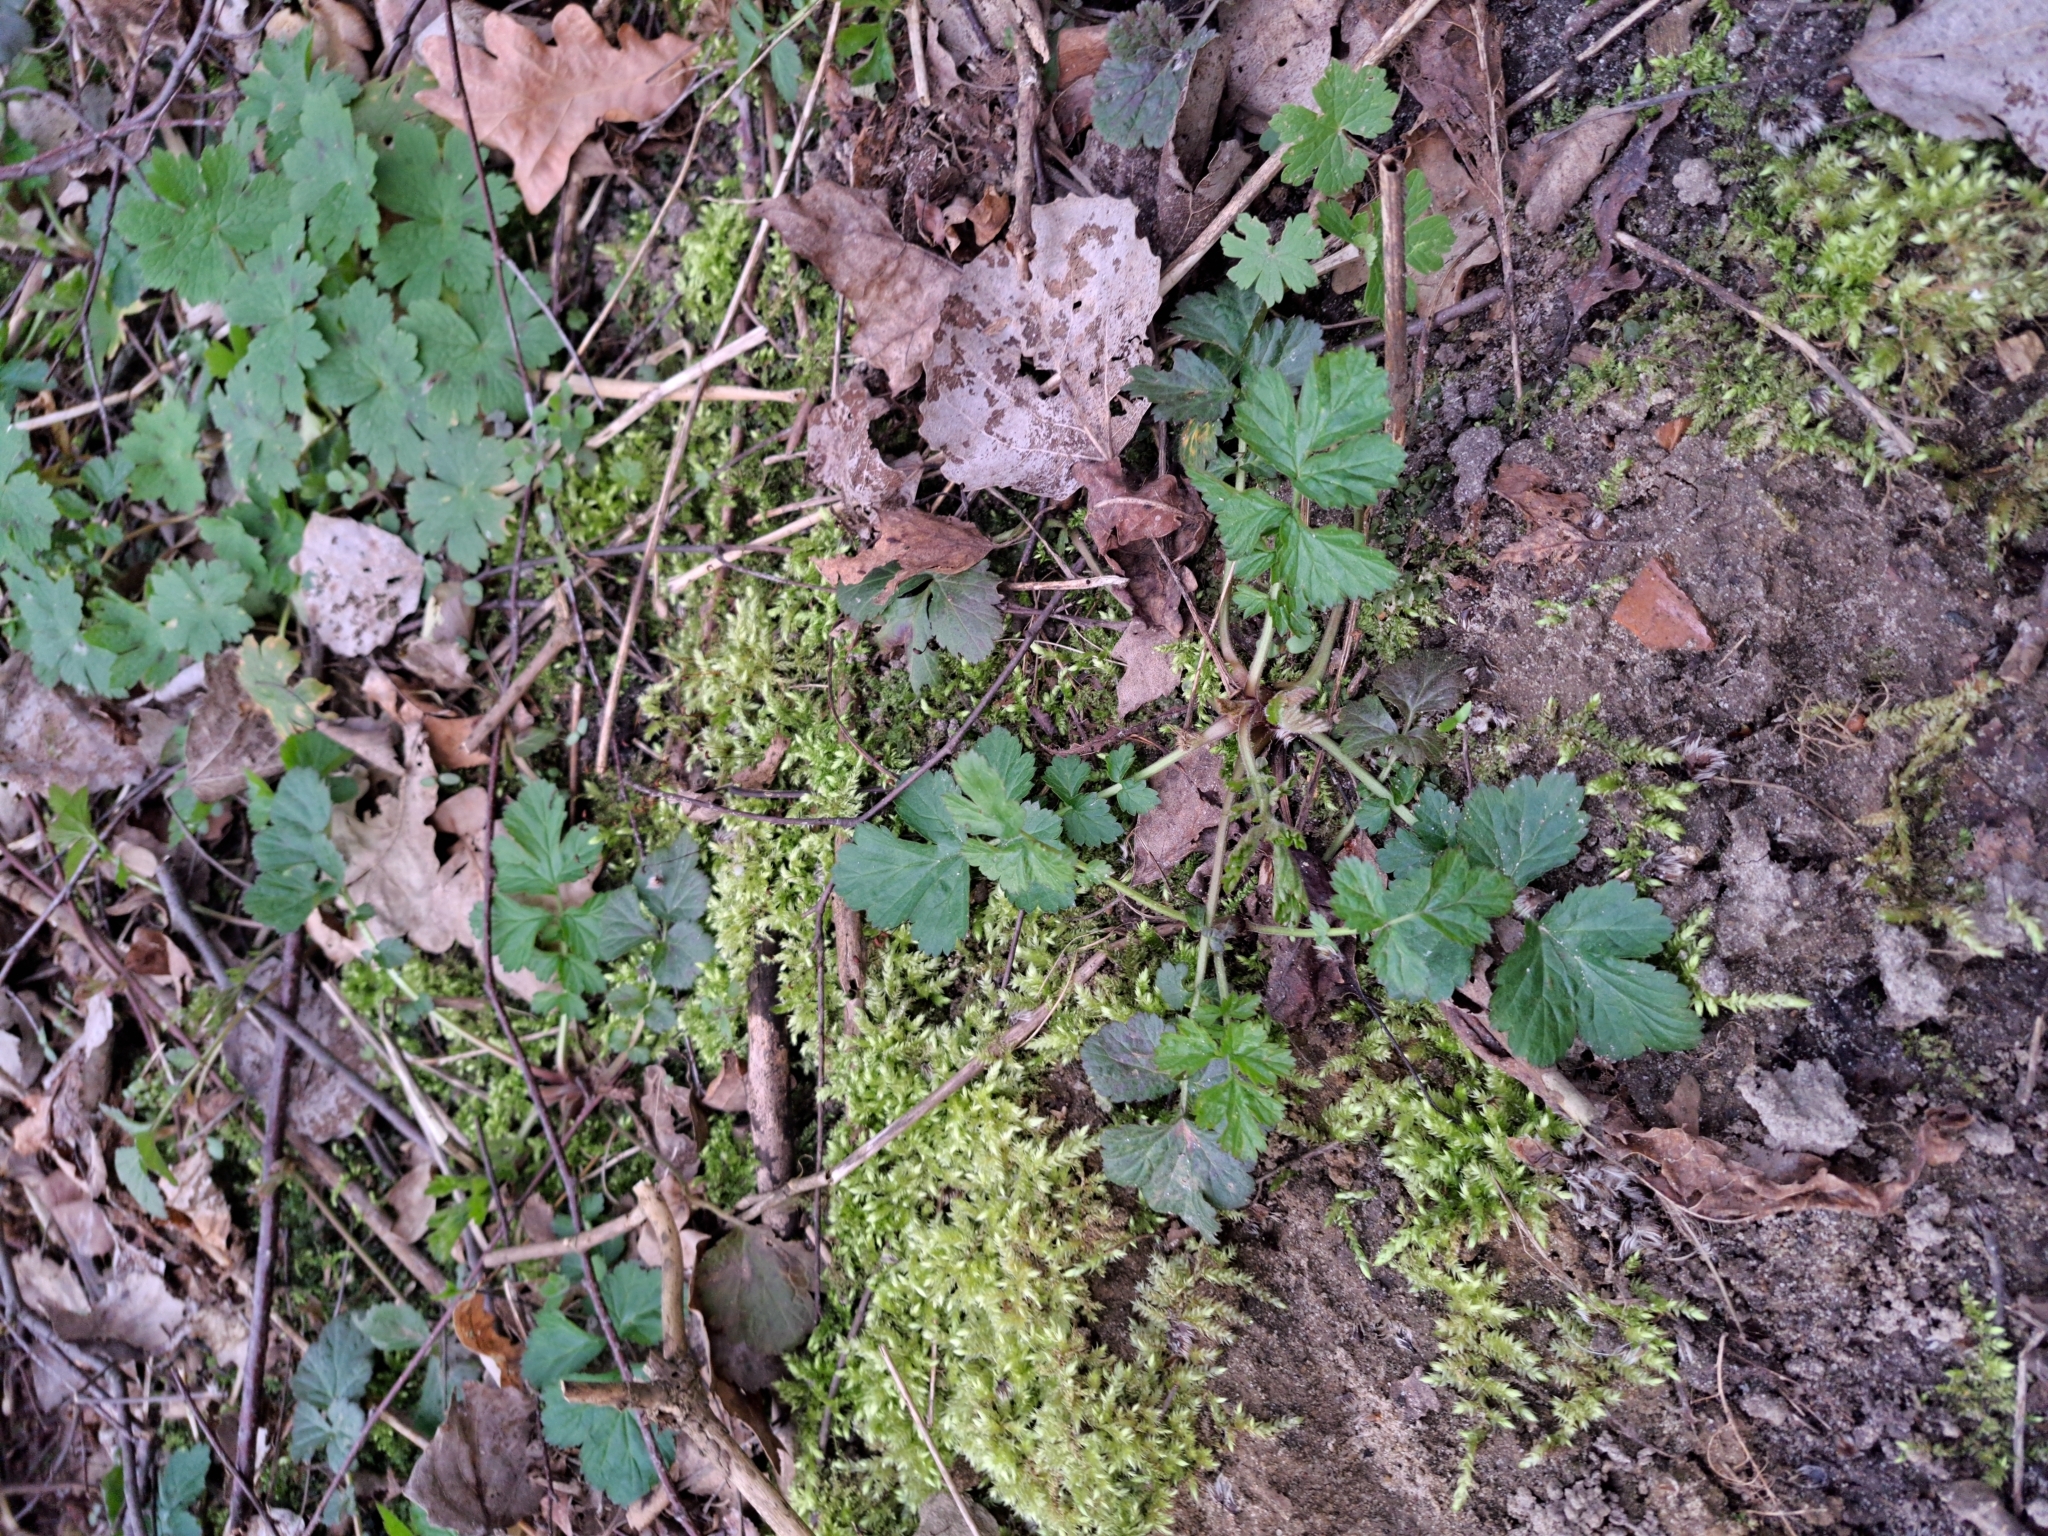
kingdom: Plantae
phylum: Tracheophyta
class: Magnoliopsida
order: Rosales
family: Rosaceae
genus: Geum
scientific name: Geum urbanum
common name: Wood avens
